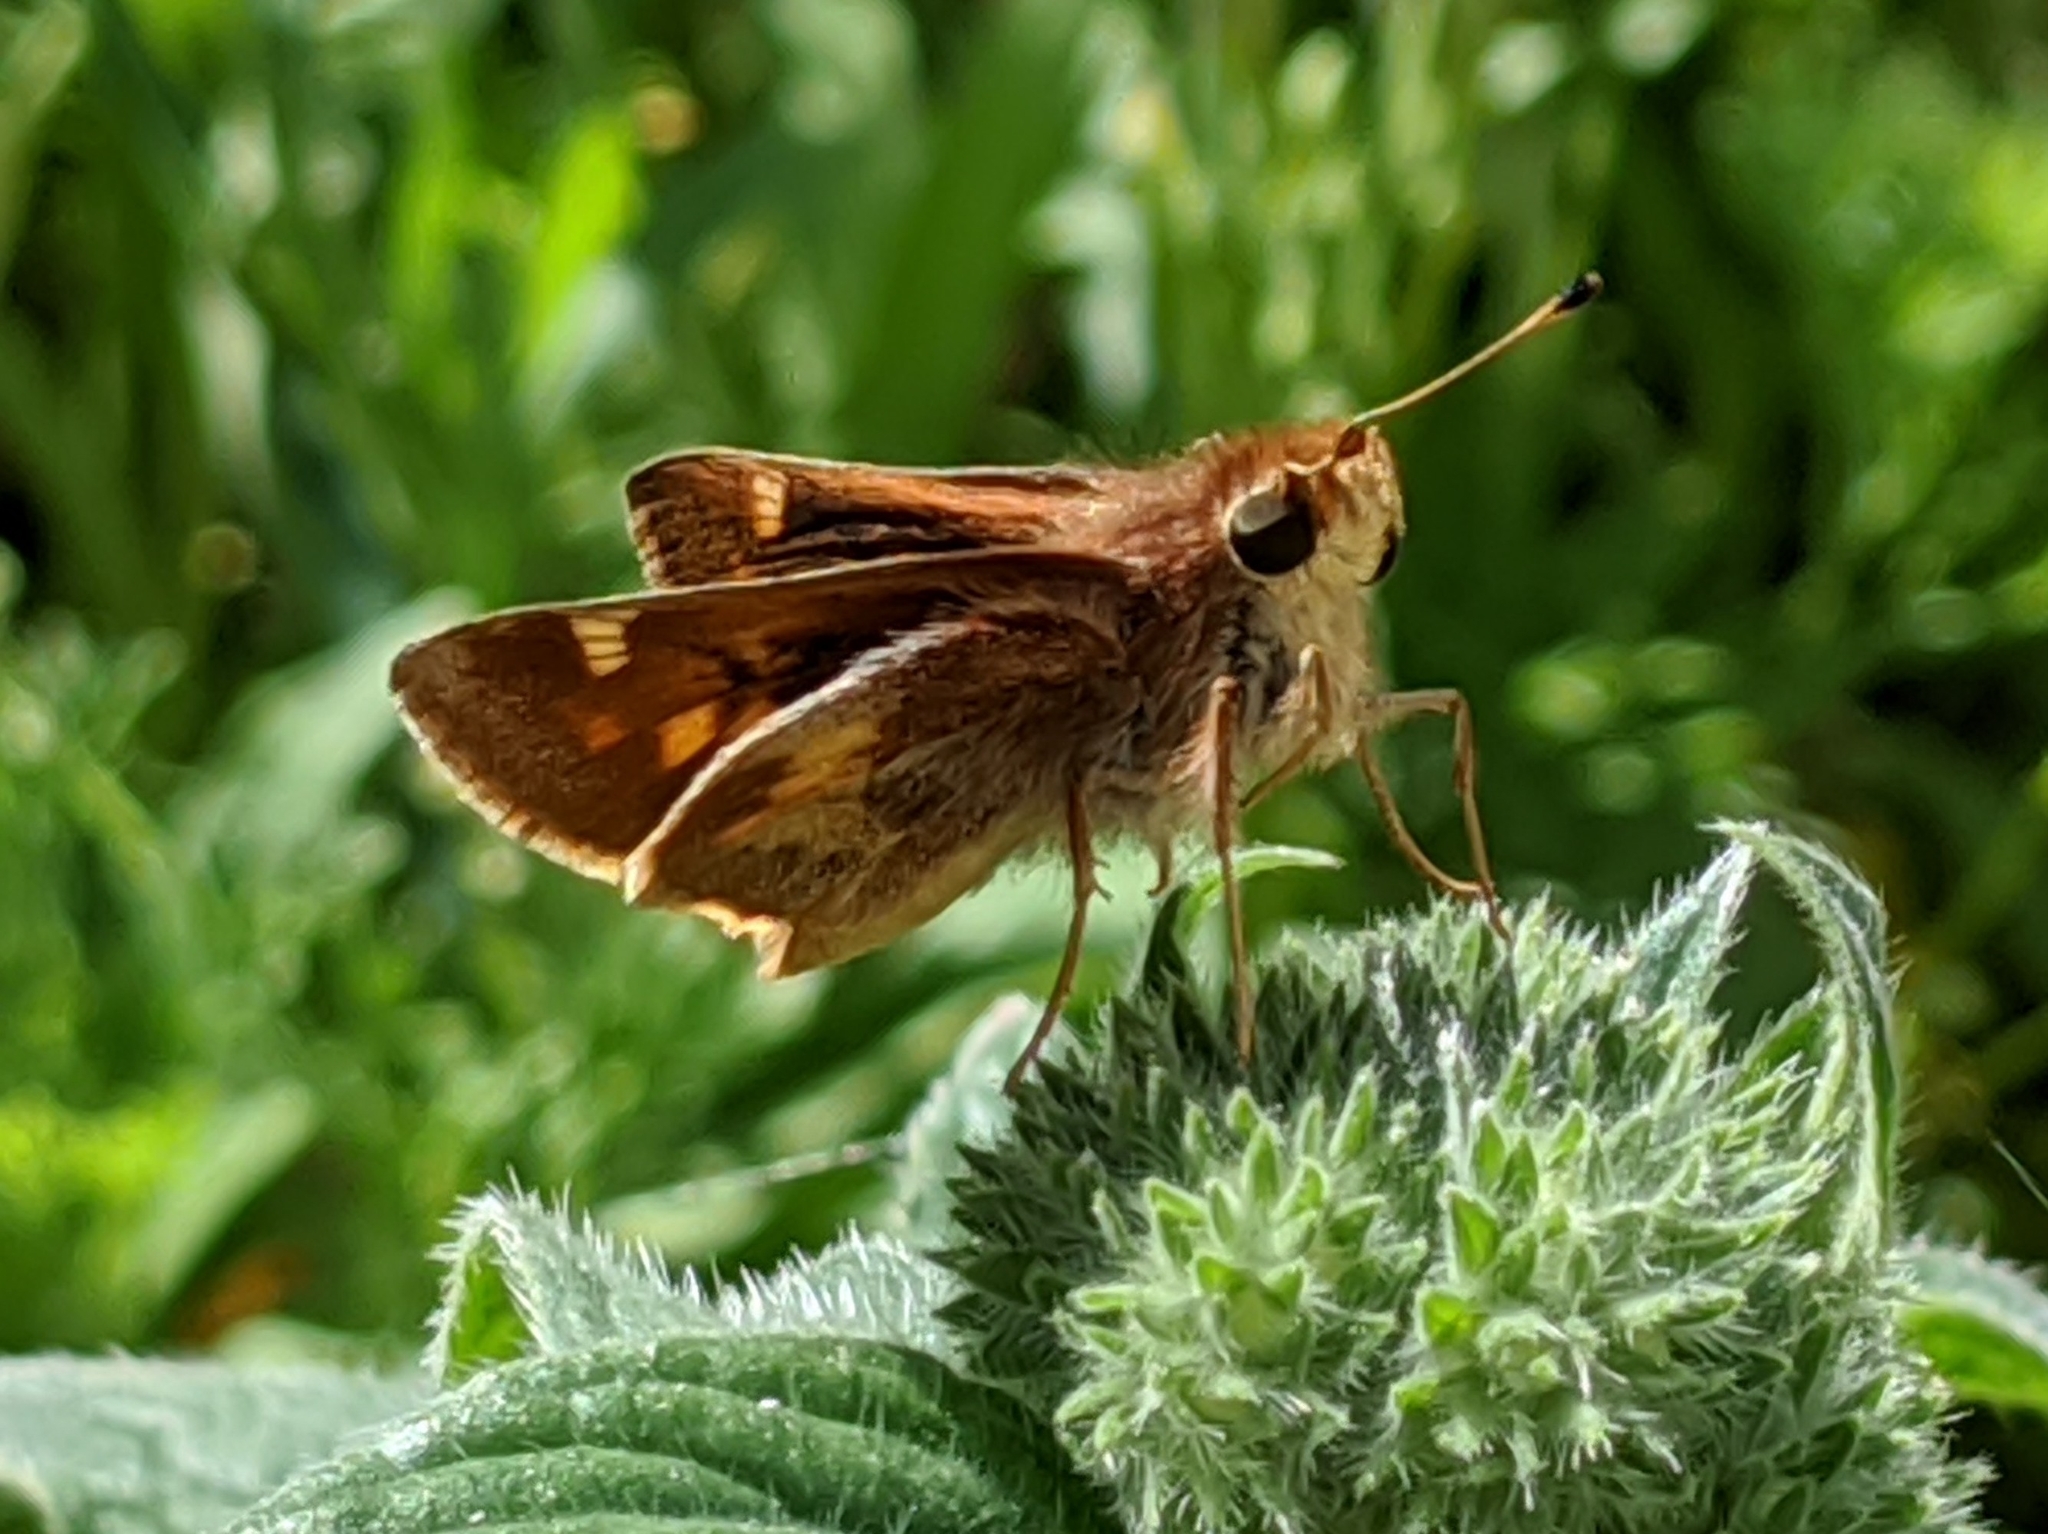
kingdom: Animalia
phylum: Arthropoda
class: Insecta
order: Lepidoptera
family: Hesperiidae
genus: Lon
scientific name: Lon melane
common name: Umber skipper
